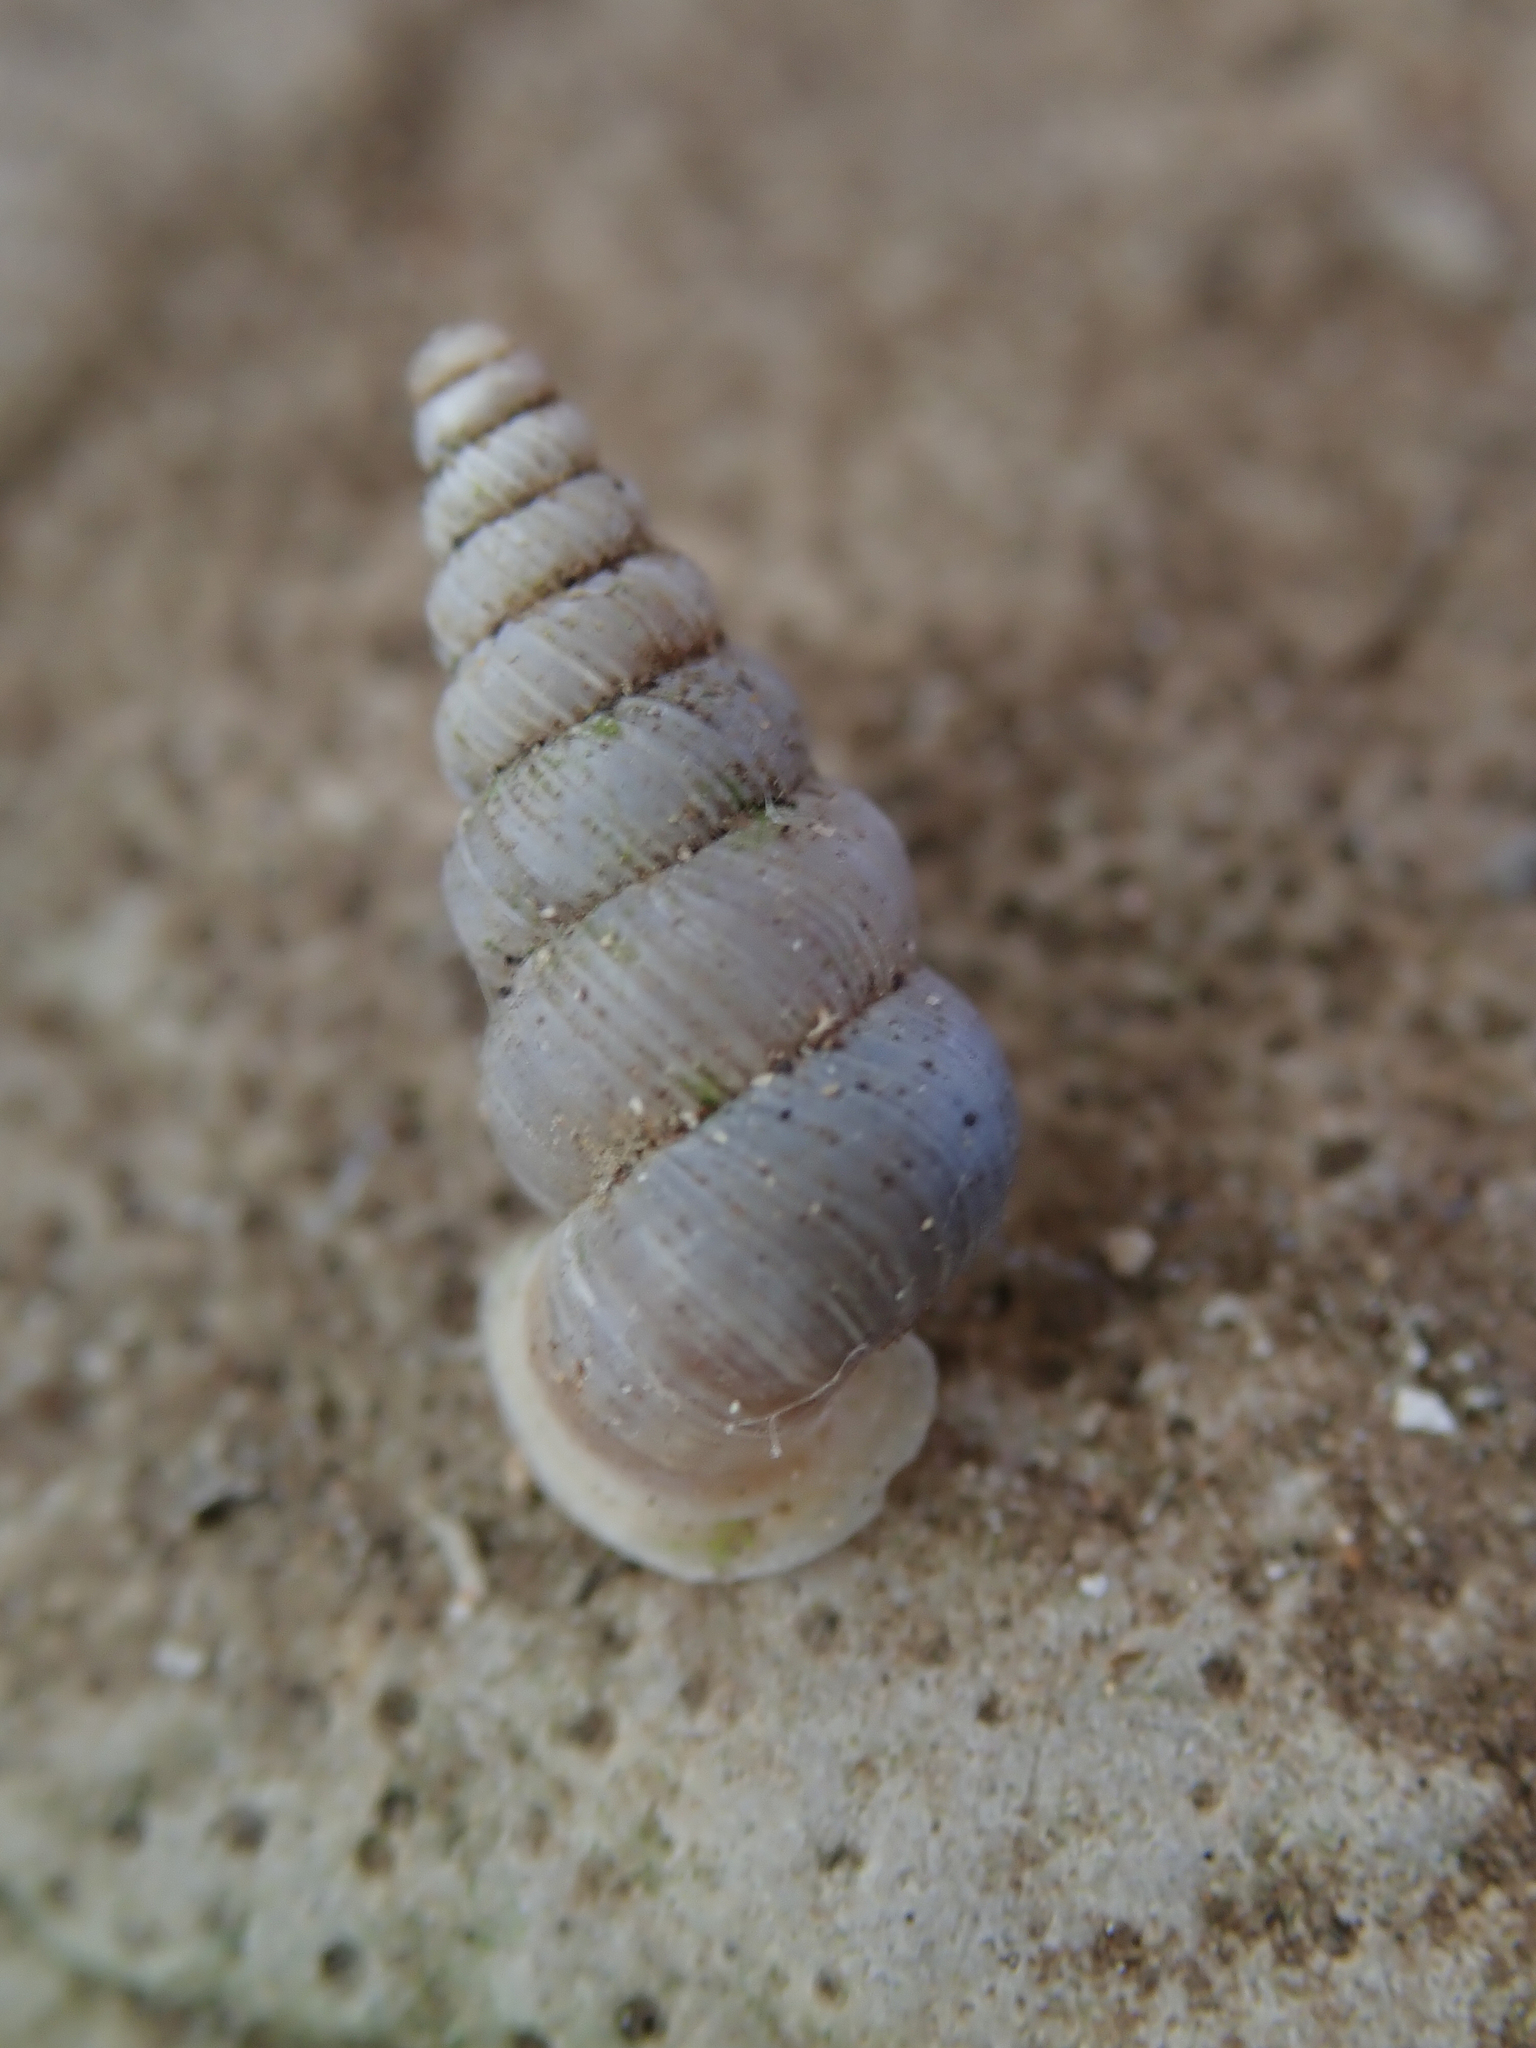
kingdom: Animalia
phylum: Mollusca
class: Gastropoda
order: Architaenioglossa
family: Cochlostomatidae
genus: Cochlostoma
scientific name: Cochlostoma patulum
